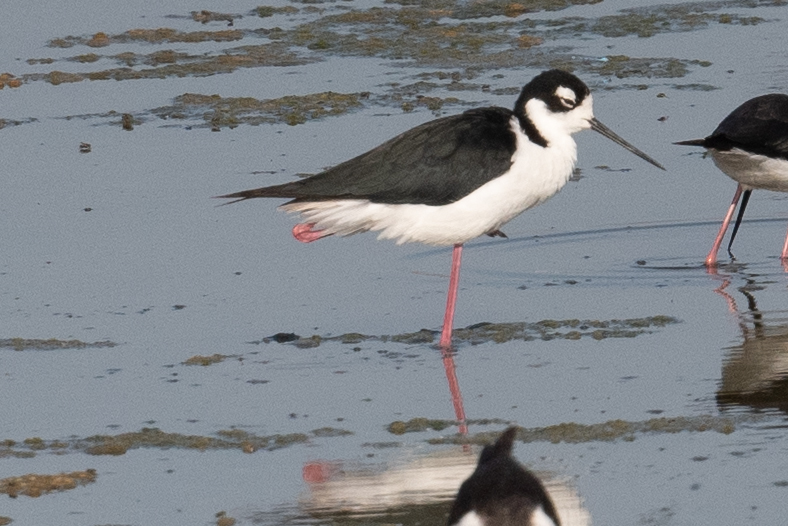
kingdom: Animalia
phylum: Chordata
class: Aves
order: Charadriiformes
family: Recurvirostridae
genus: Himantopus
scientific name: Himantopus mexicanus
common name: Black-necked stilt
